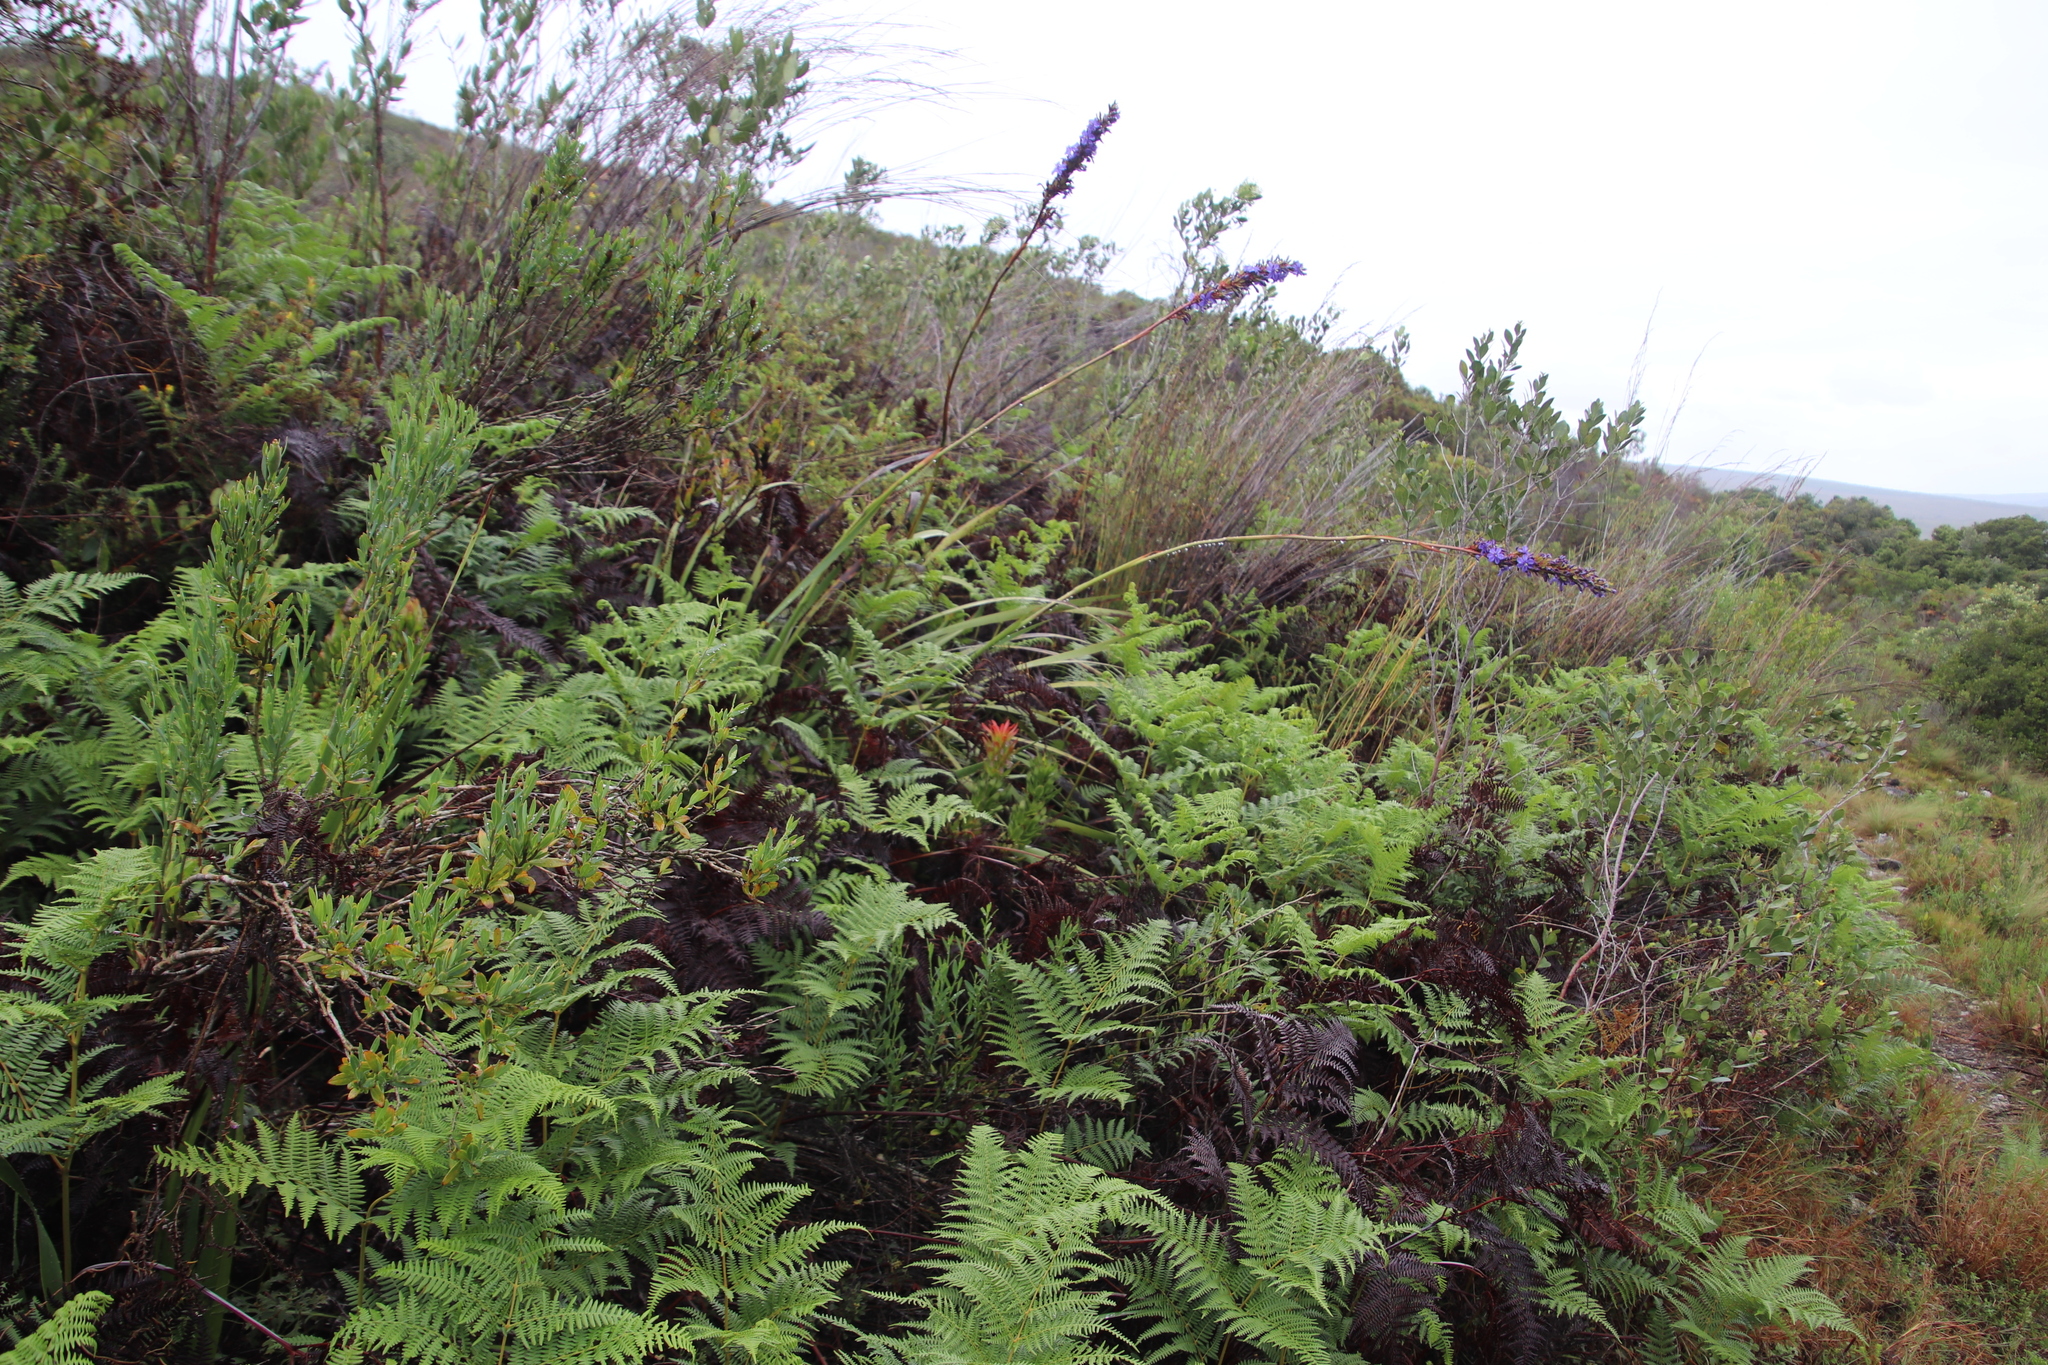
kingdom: Plantae
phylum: Tracheophyta
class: Polypodiopsida
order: Polypodiales
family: Dennstaedtiaceae
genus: Pteridium
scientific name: Pteridium aquilinum
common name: Bracken
